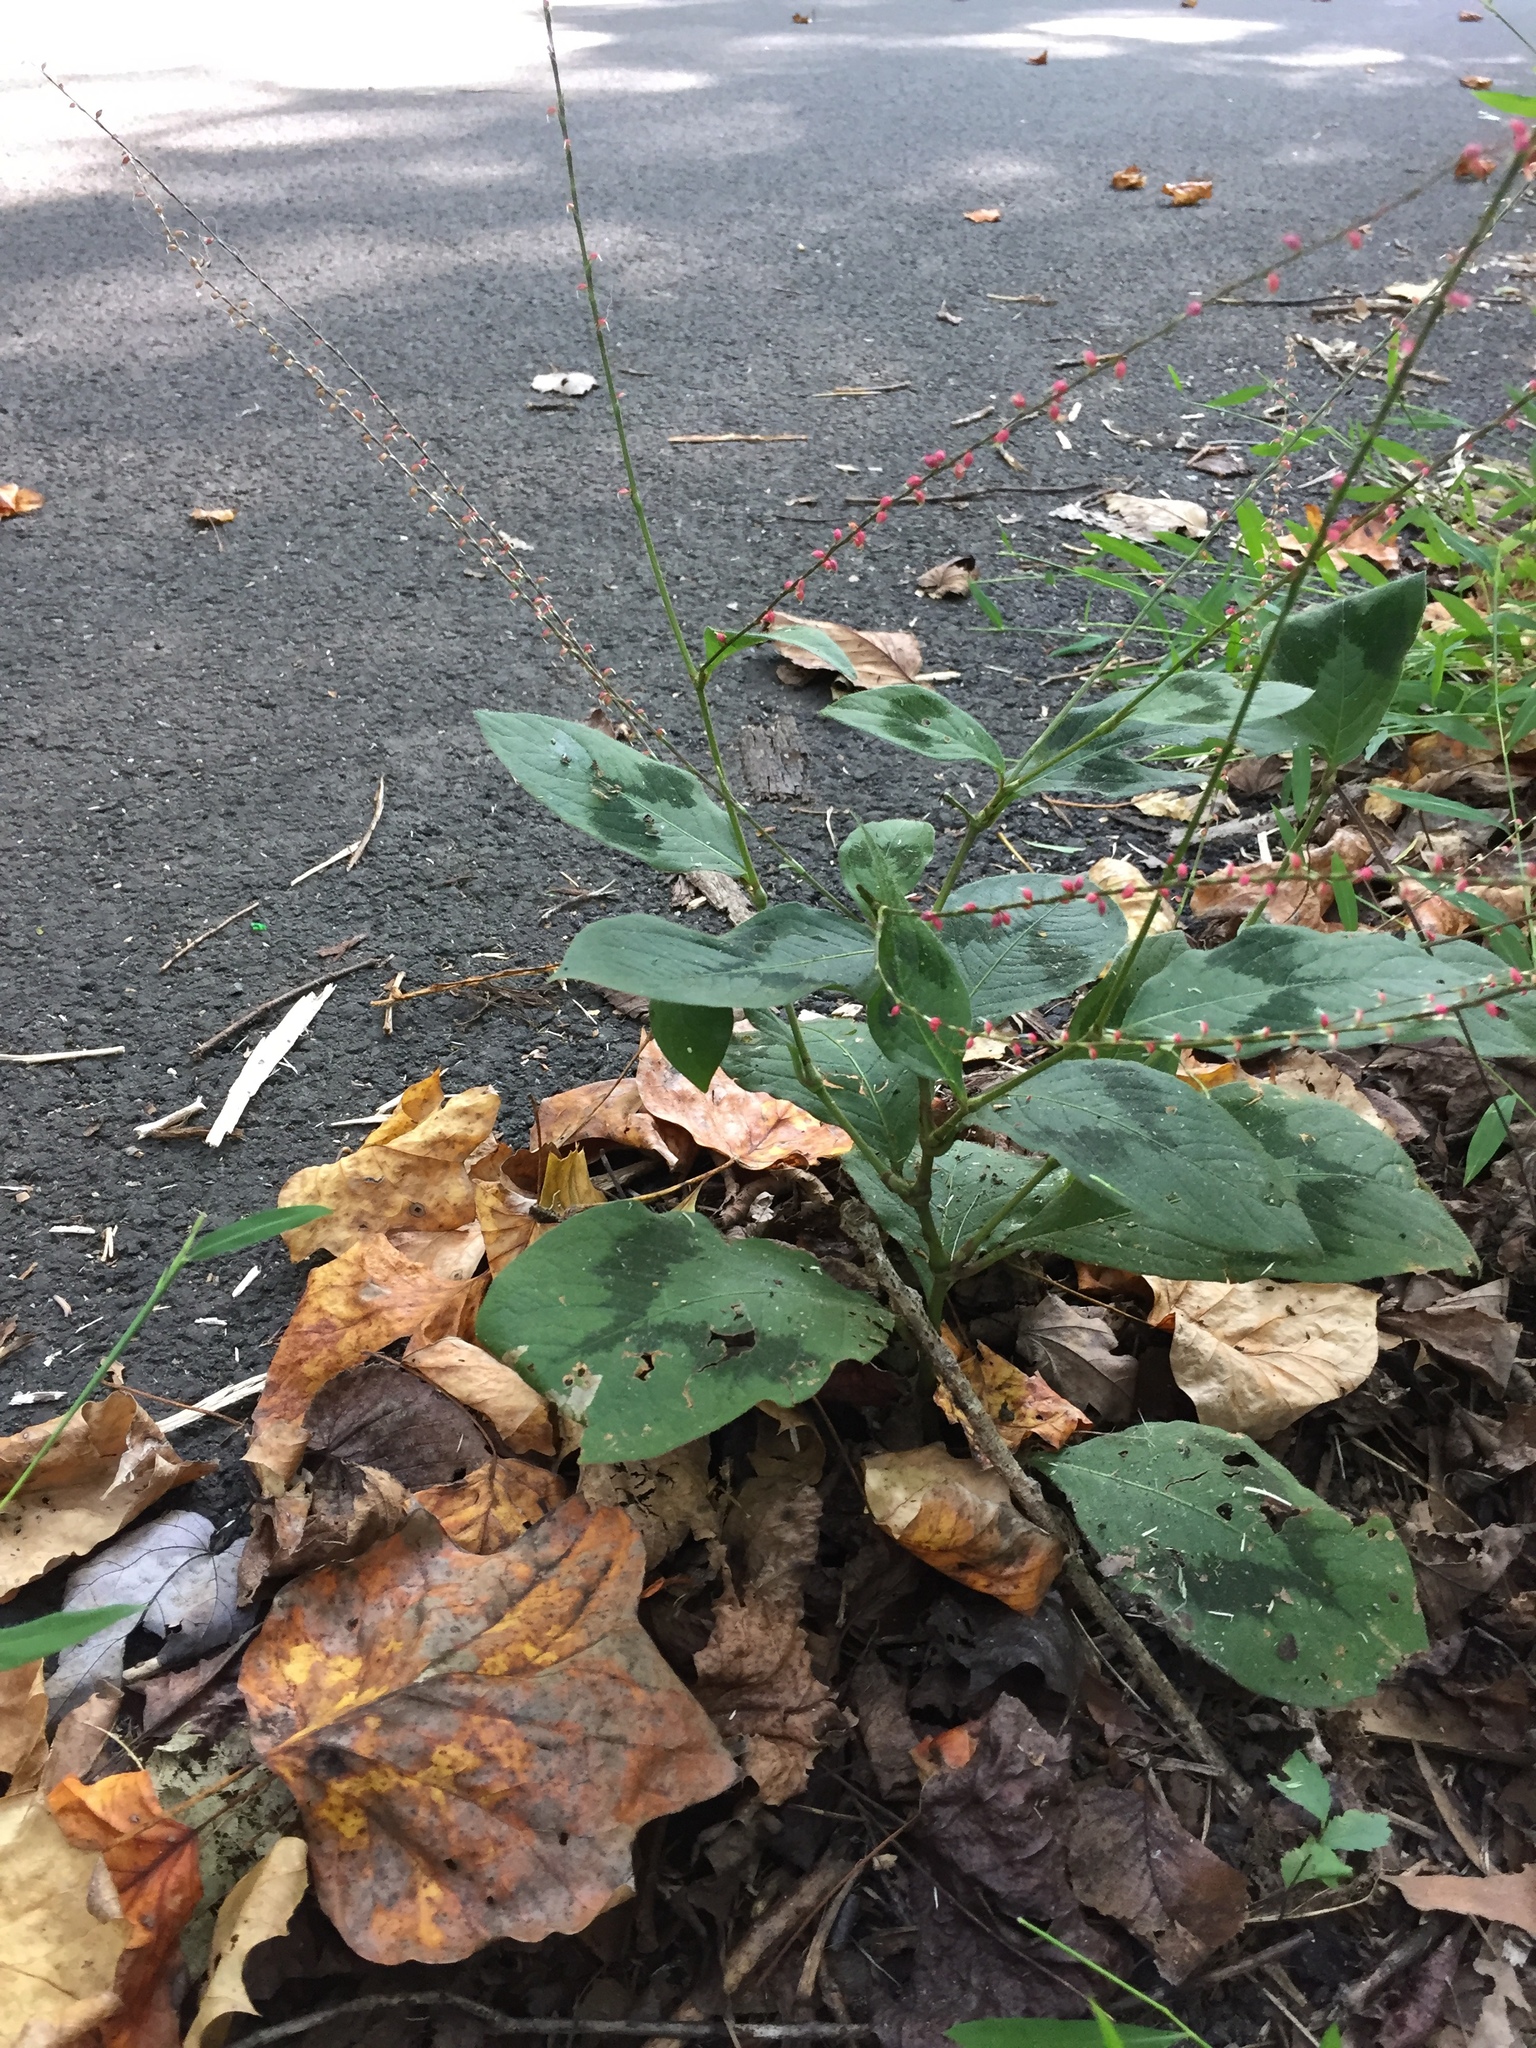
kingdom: Plantae
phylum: Tracheophyta
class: Magnoliopsida
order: Caryophyllales
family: Polygonaceae
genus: Persicaria
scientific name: Persicaria filiformis
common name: Asian jumpseed
